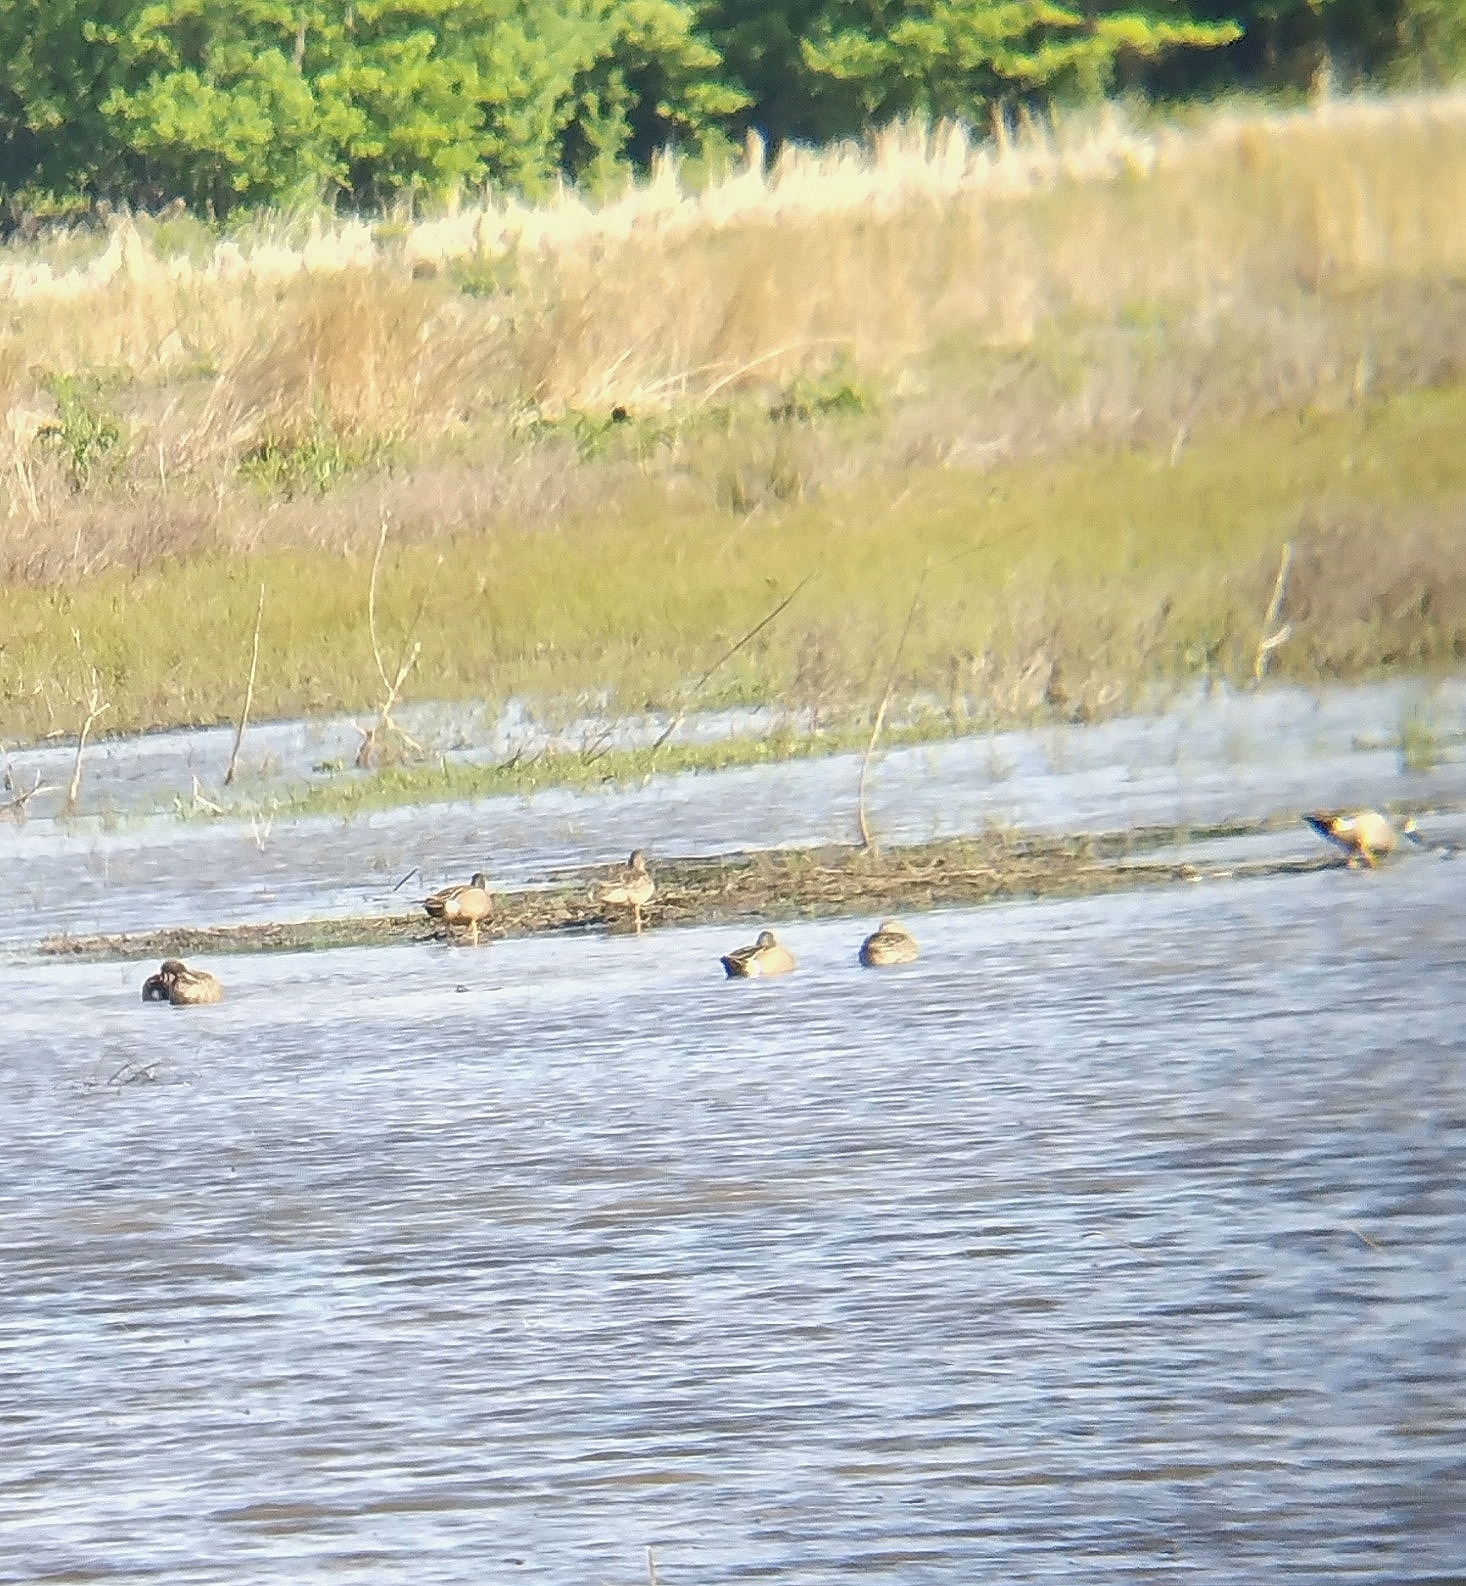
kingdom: Animalia
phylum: Chordata
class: Aves
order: Anseriformes
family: Anatidae
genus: Spatula
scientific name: Spatula discors
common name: Blue-winged teal
